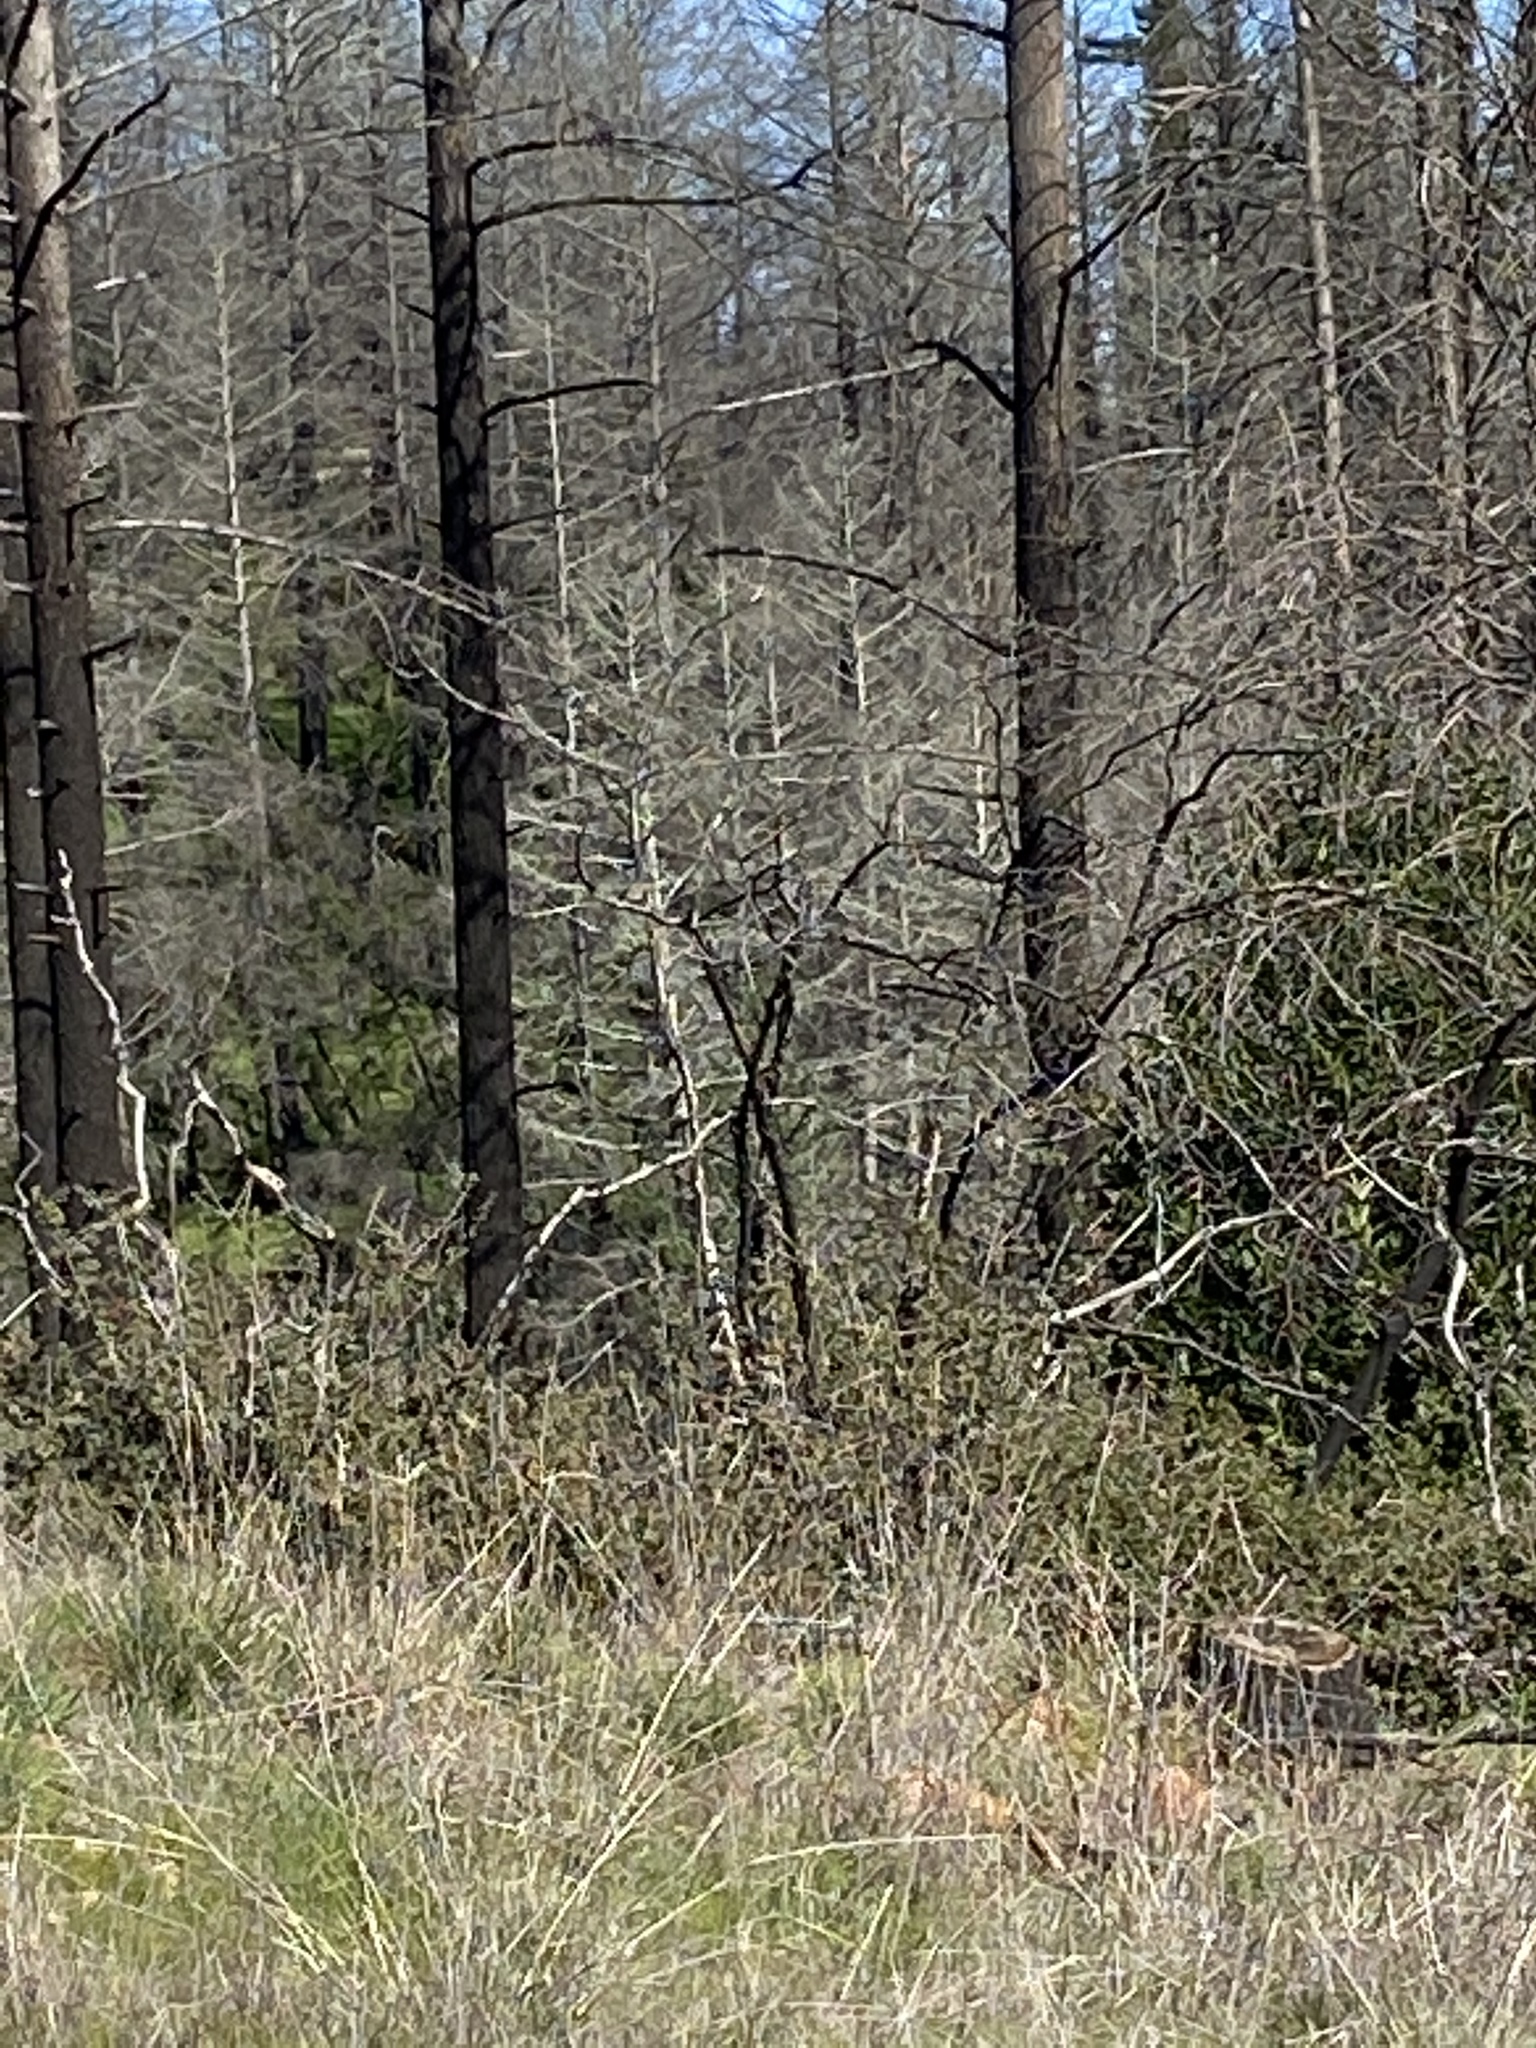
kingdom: Animalia
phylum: Chordata
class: Aves
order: Passeriformes
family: Turdidae
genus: Sialia
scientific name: Sialia mexicana
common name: Western bluebird
